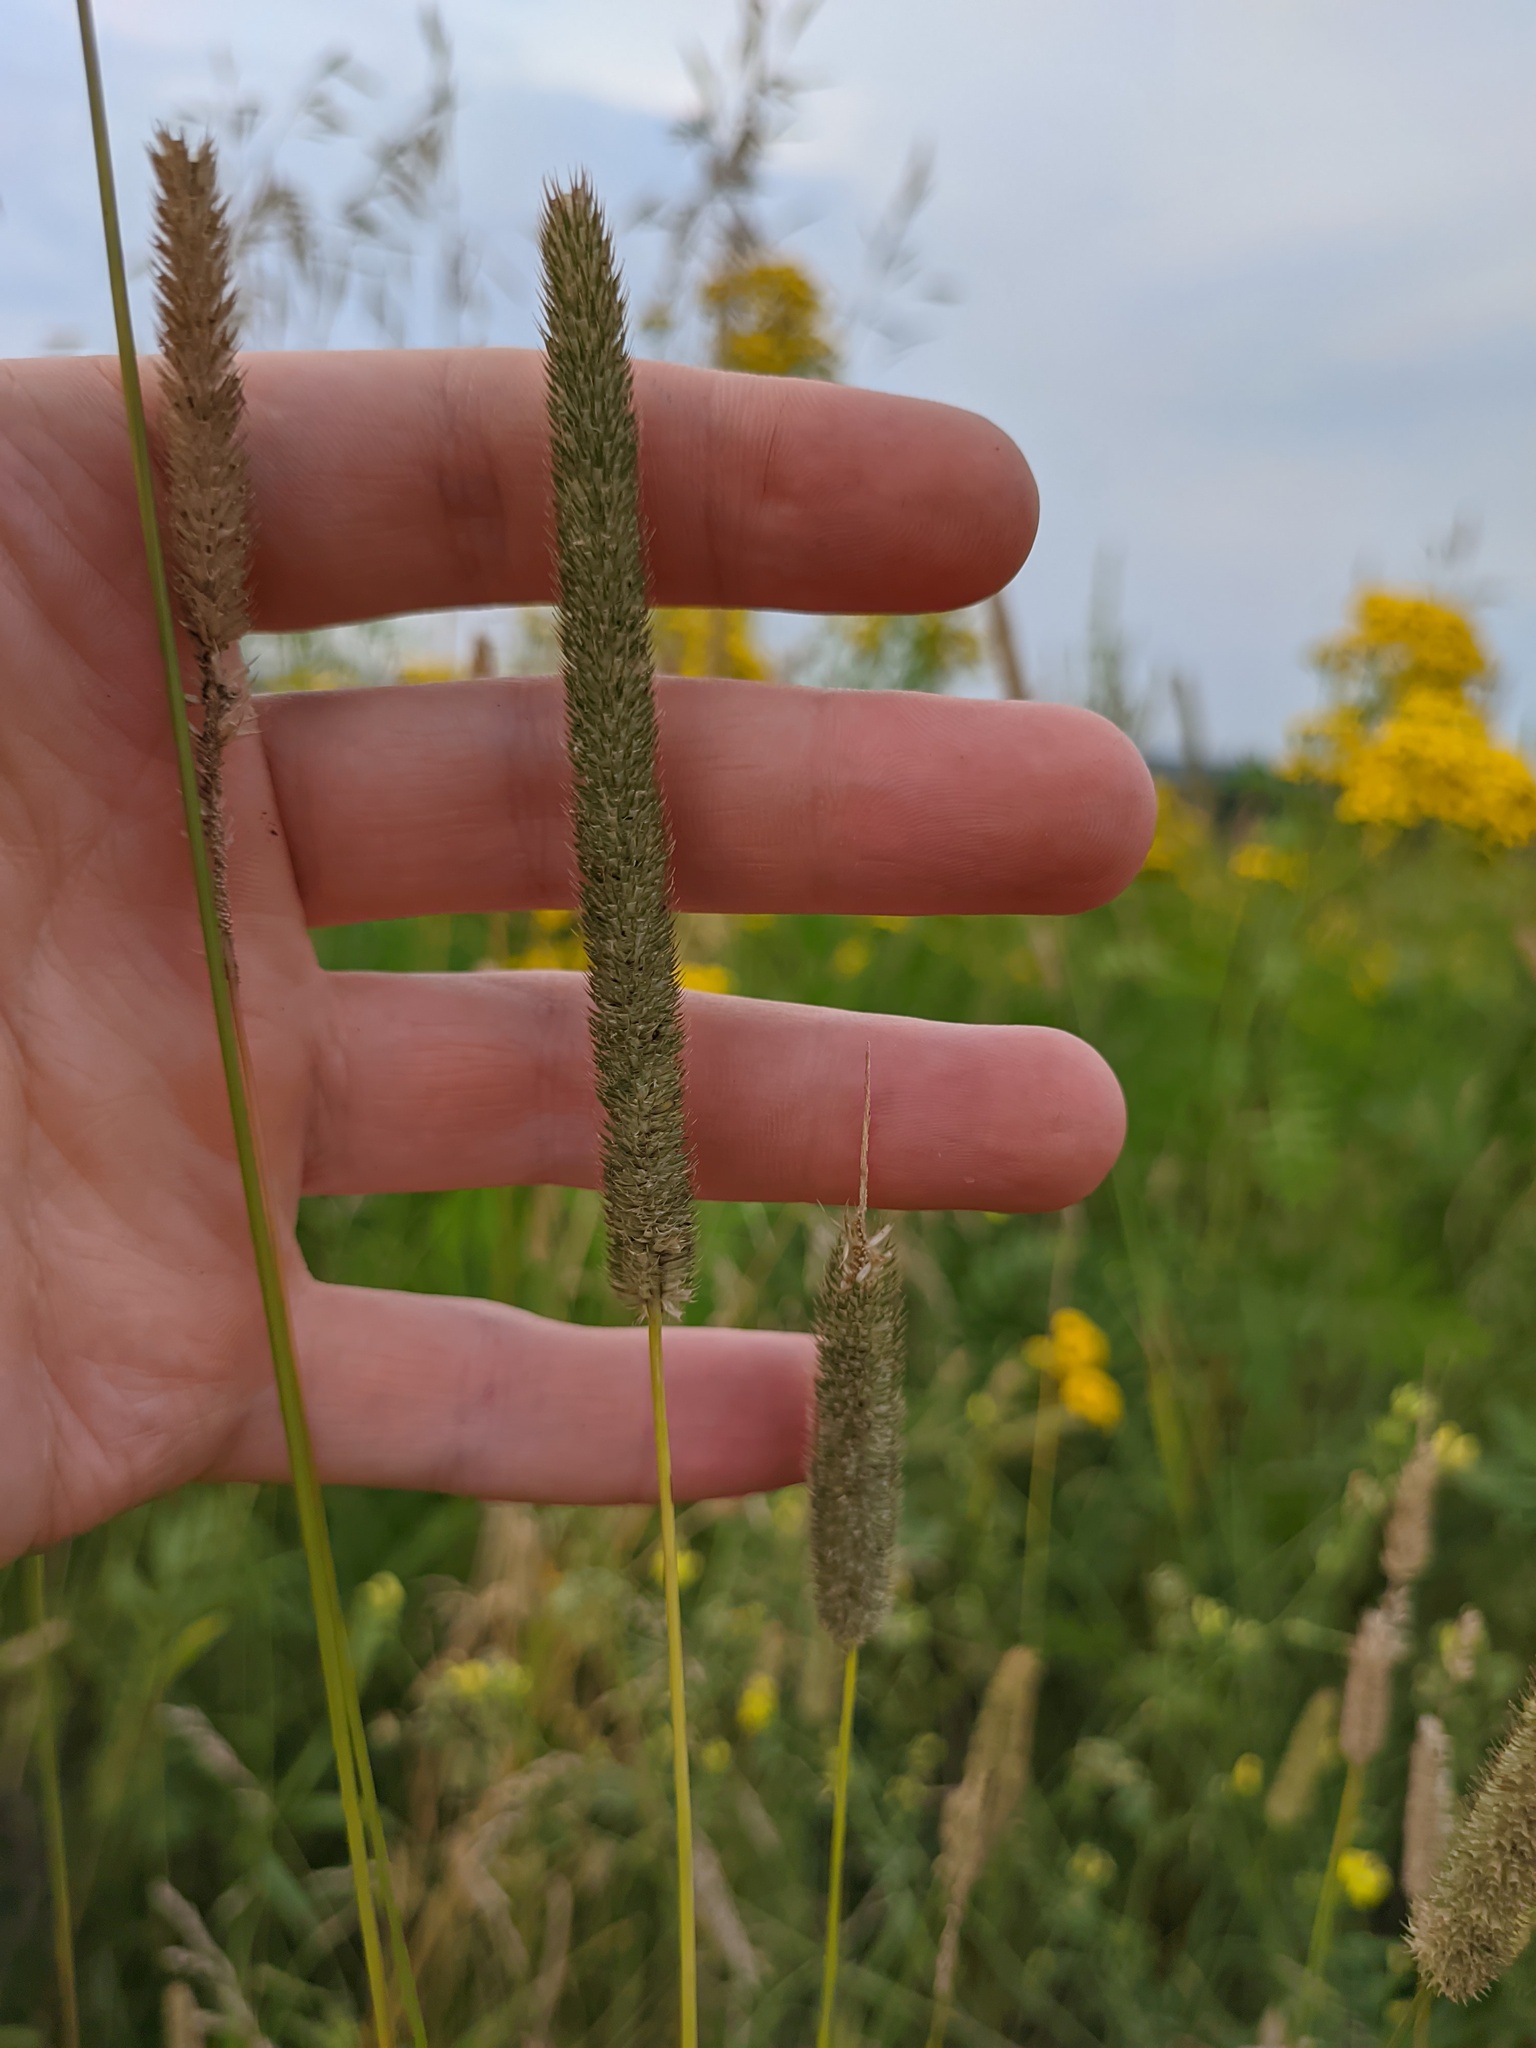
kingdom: Plantae
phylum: Tracheophyta
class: Liliopsida
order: Poales
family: Poaceae
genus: Phleum
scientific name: Phleum pratense
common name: Timothy grass
